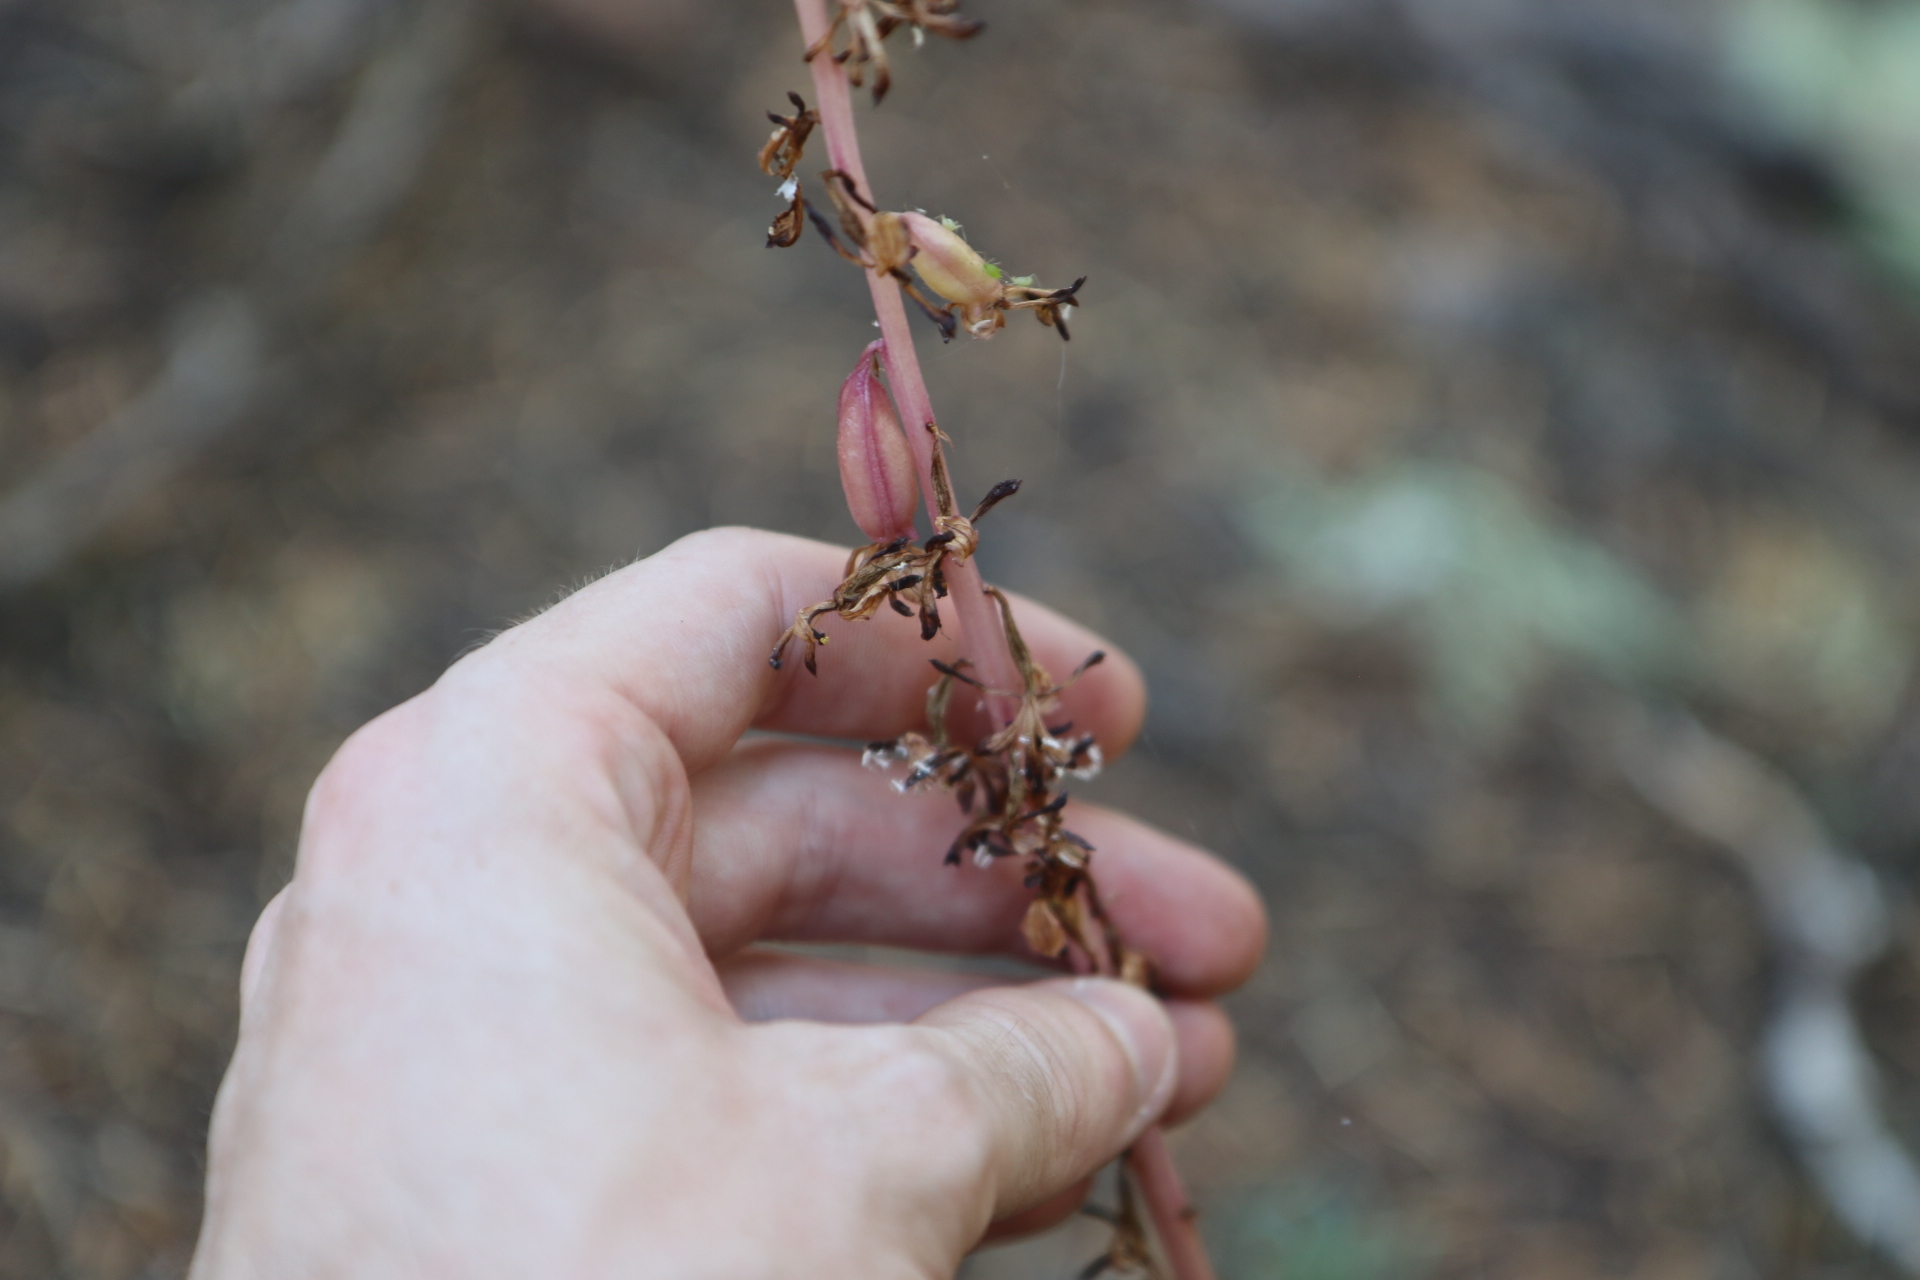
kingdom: Plantae
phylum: Tracheophyta
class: Liliopsida
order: Asparagales
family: Orchidaceae
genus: Corallorhiza
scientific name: Corallorhiza mertensiana
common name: Pacific coralroot
